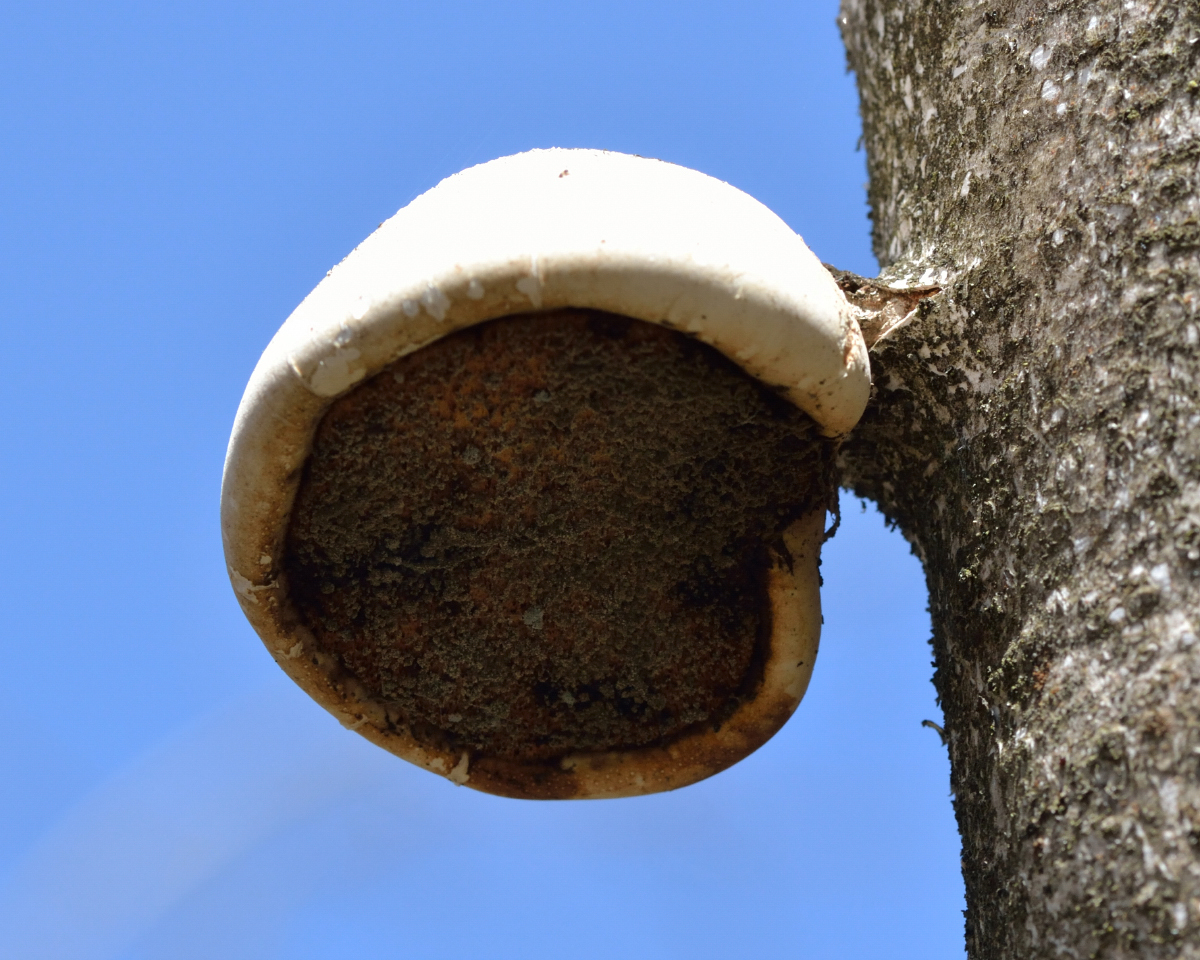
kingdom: Fungi
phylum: Basidiomycota
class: Agaricomycetes
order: Polyporales
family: Fomitopsidaceae
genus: Fomitopsis
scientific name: Fomitopsis betulina
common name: Birch polypore
